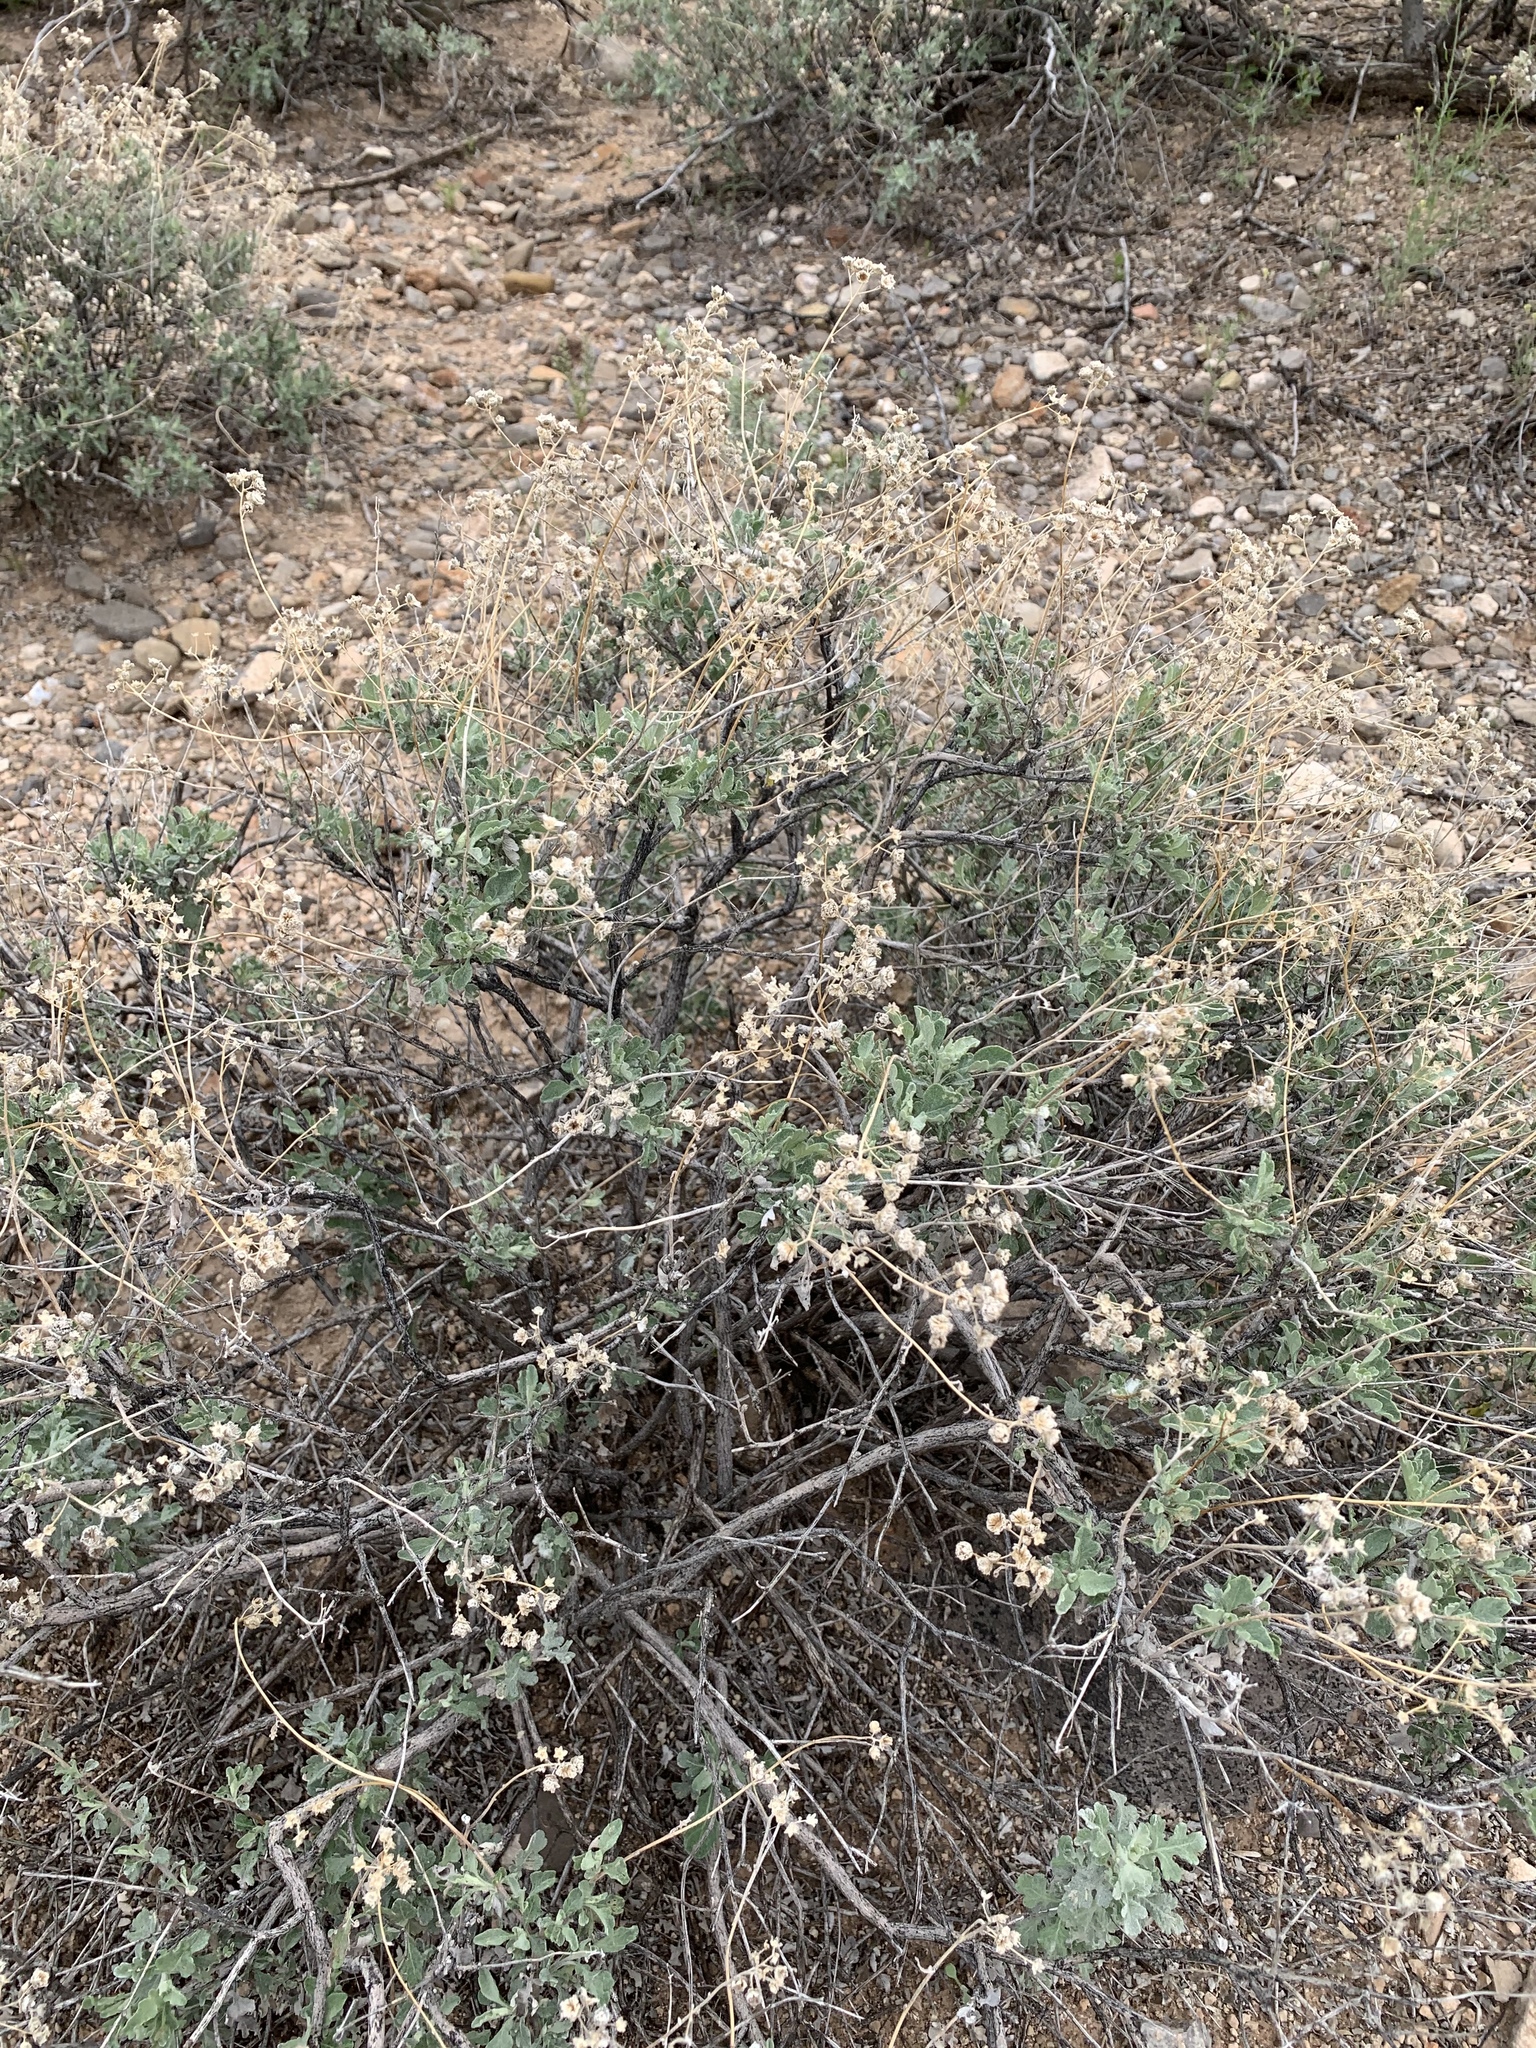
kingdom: Plantae
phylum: Tracheophyta
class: Magnoliopsida
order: Asterales
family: Asteraceae
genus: Parthenium
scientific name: Parthenium incanum
